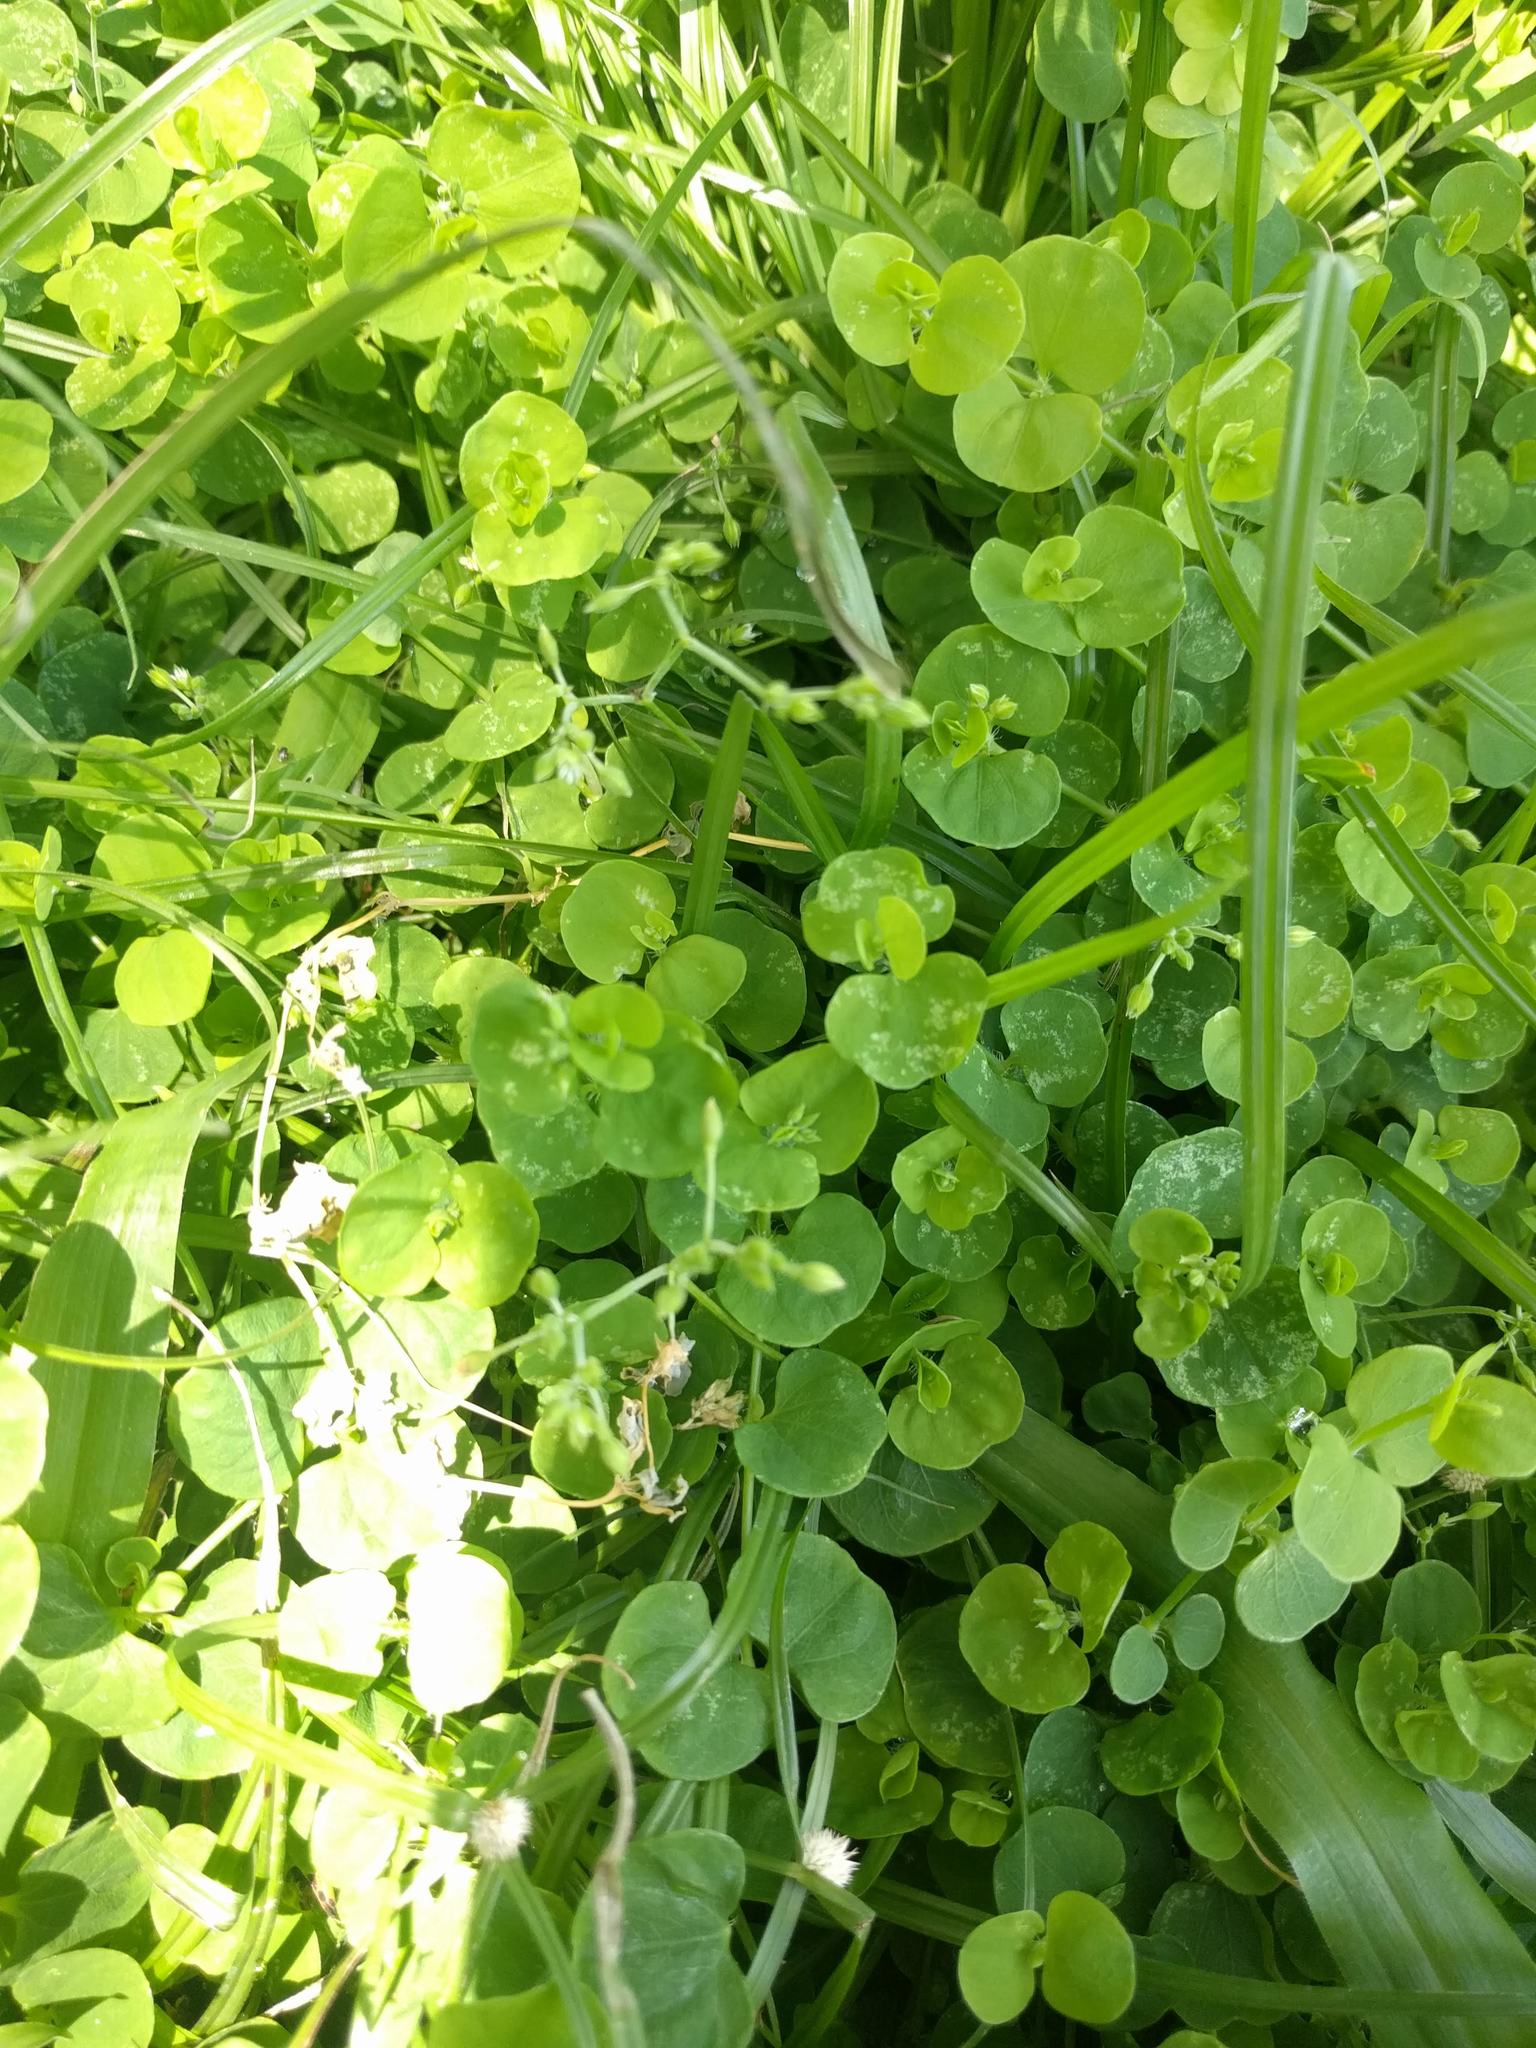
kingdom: Plantae
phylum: Tracheophyta
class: Magnoliopsida
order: Caryophyllales
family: Caryophyllaceae
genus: Drymaria
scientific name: Drymaria cordata
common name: Whitesnow
